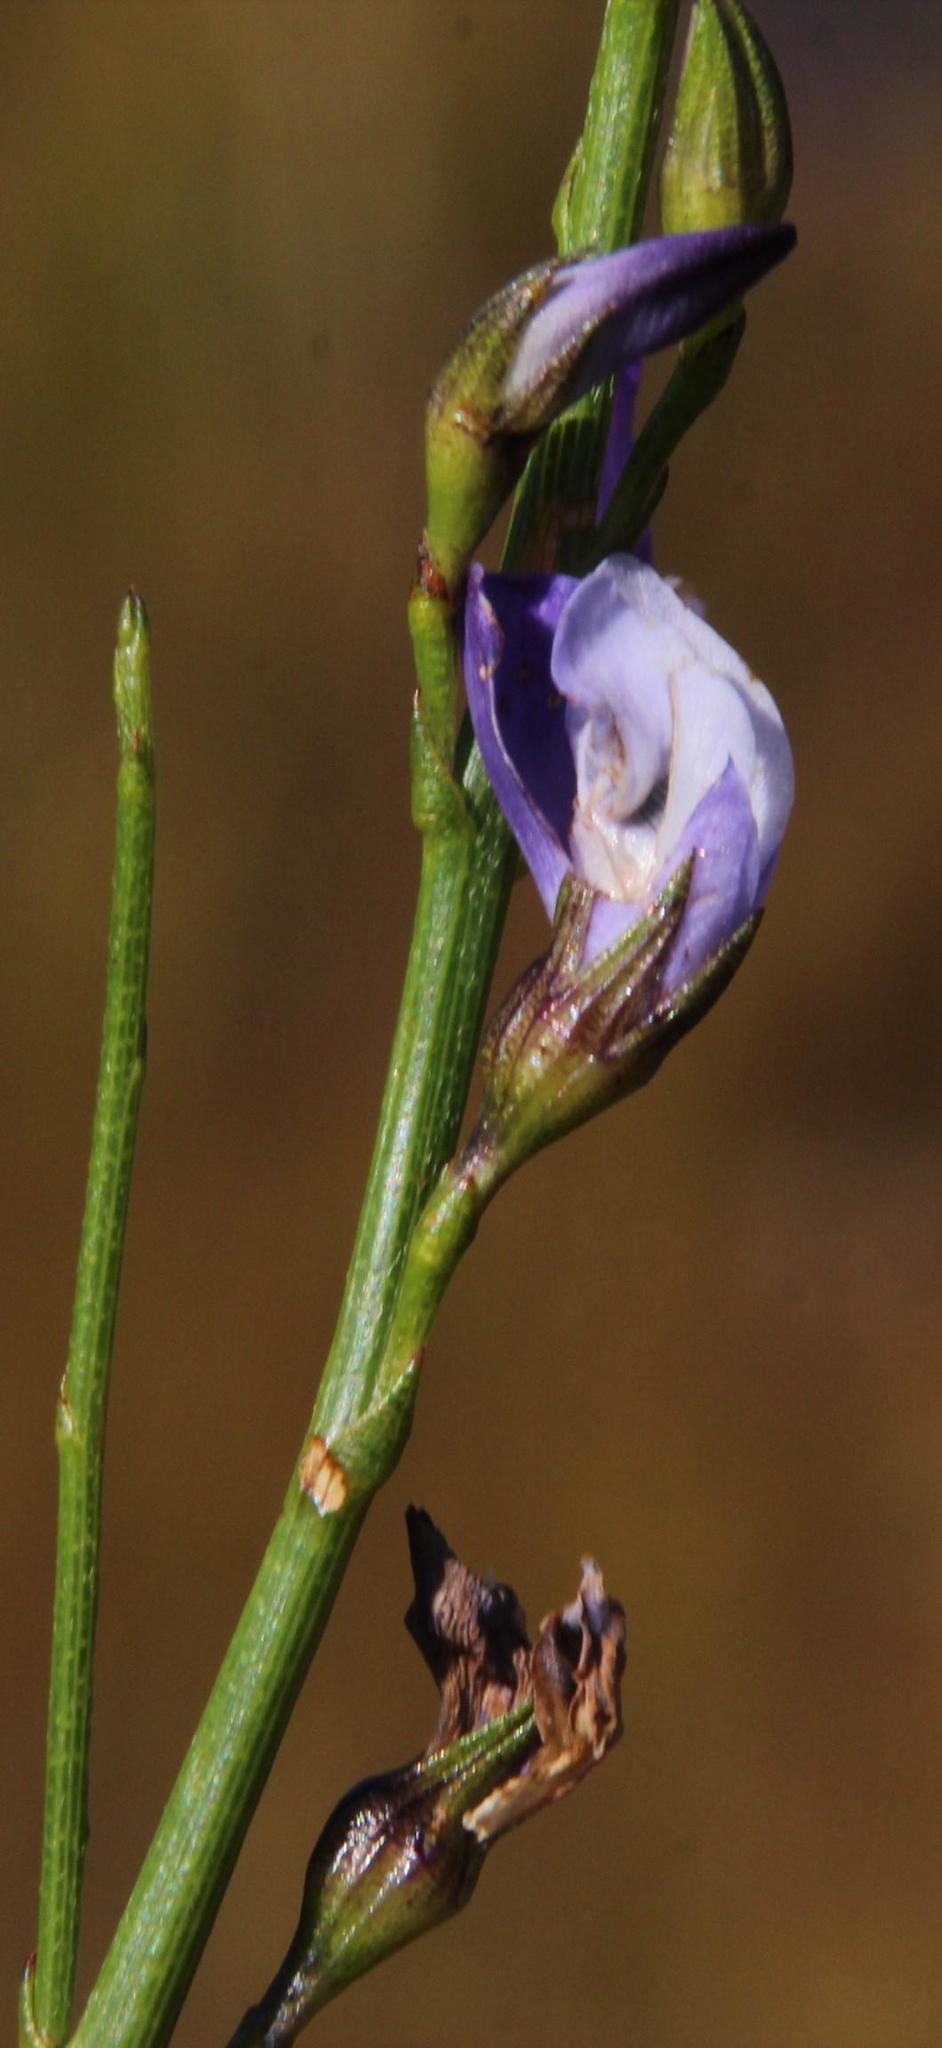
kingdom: Plantae
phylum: Tracheophyta
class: Magnoliopsida
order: Fabales
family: Fabaceae
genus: Psoralea
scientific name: Psoralea usitata
